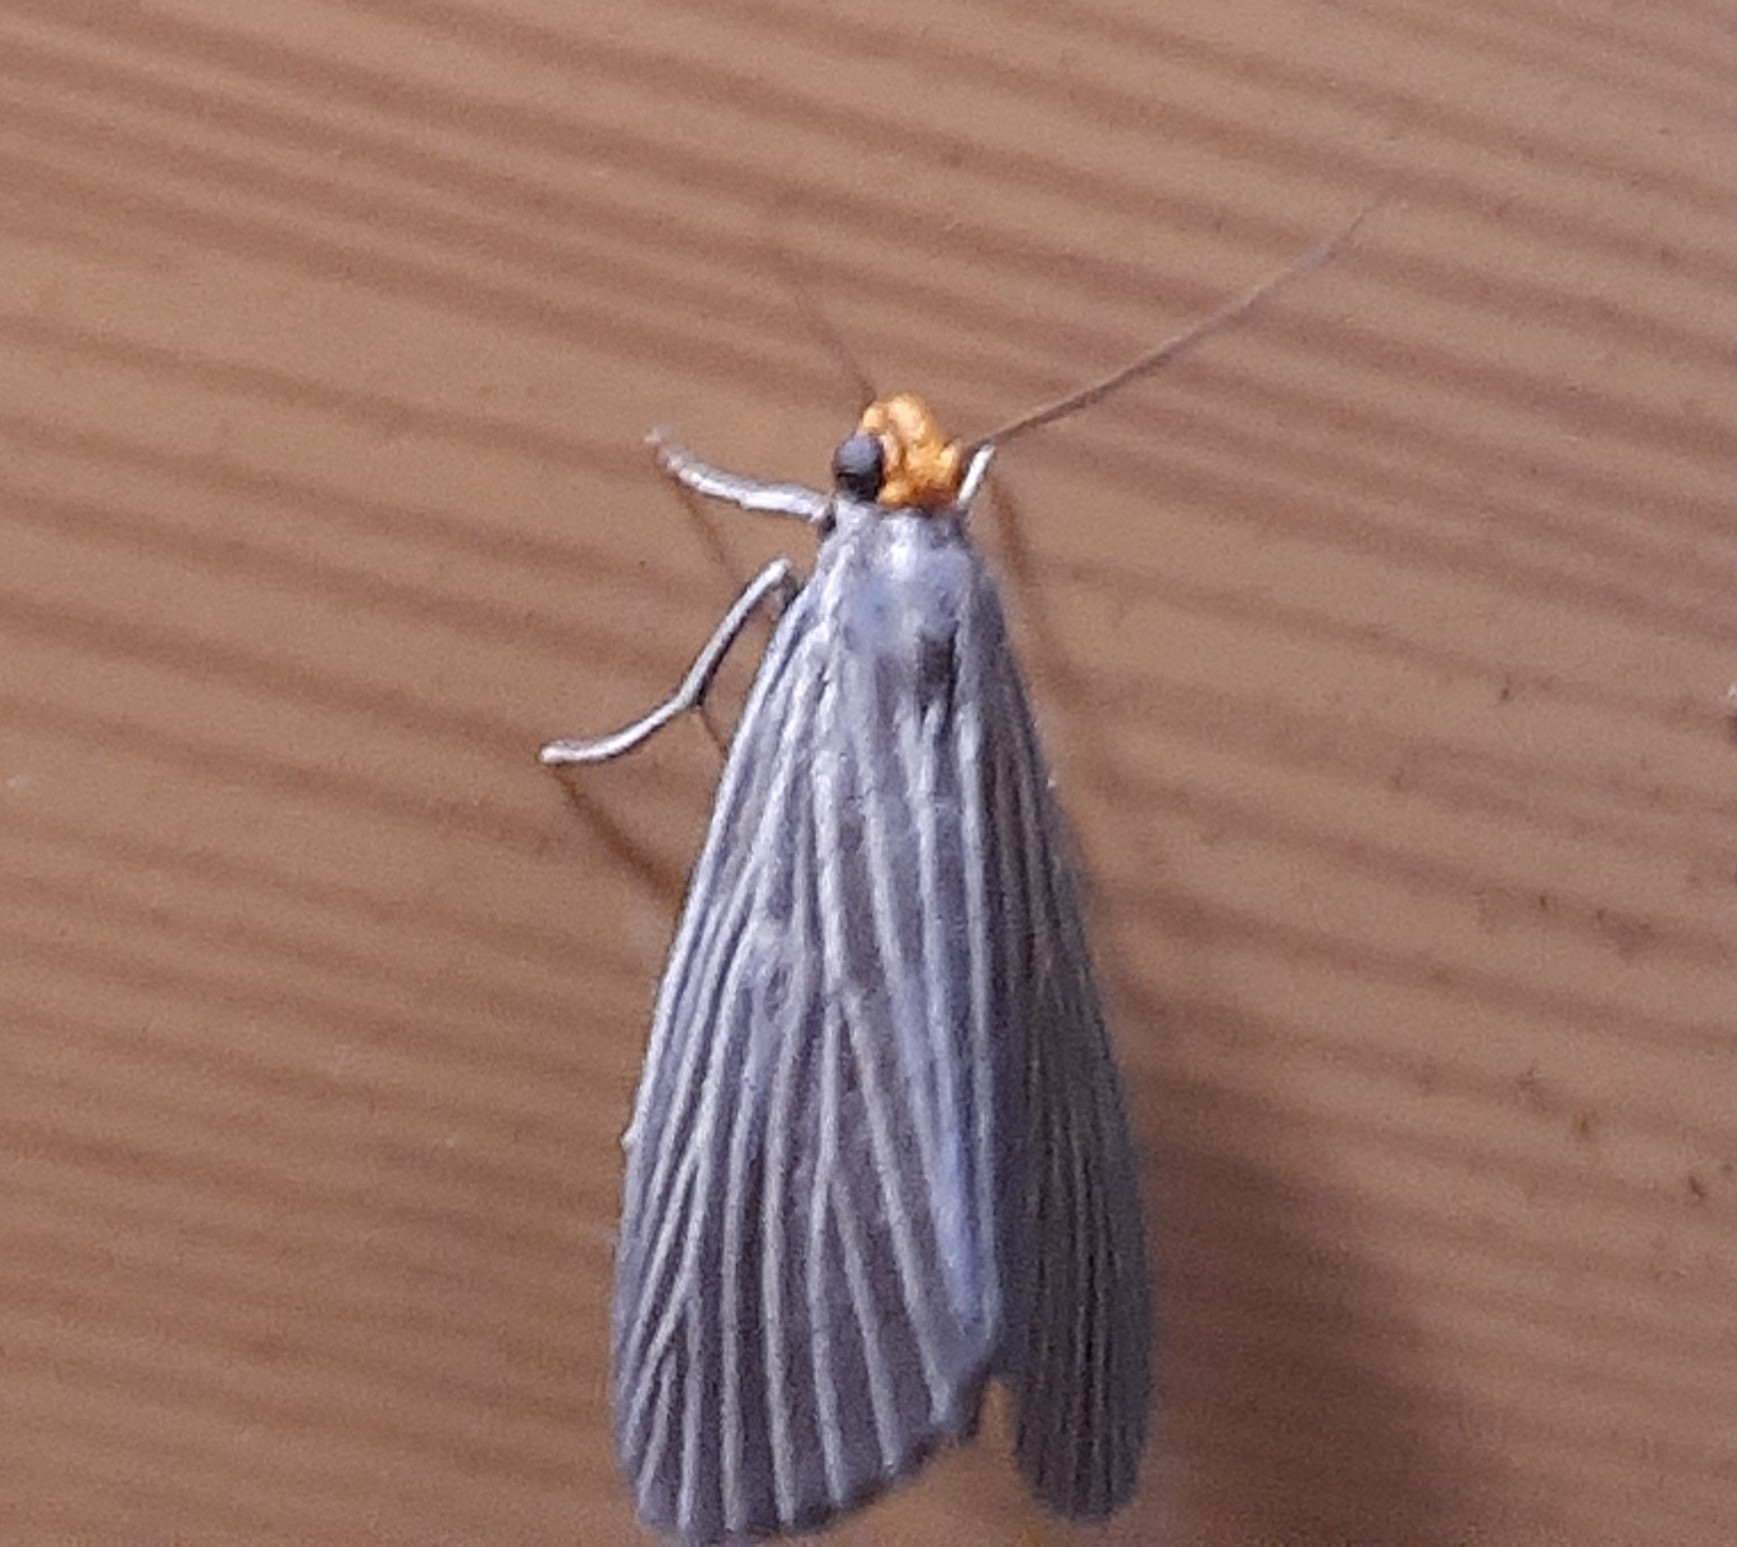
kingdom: Animalia
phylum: Arthropoda
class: Insecta
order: Lepidoptera
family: Notodontidae
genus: Scotura
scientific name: Scotura leucophleps
